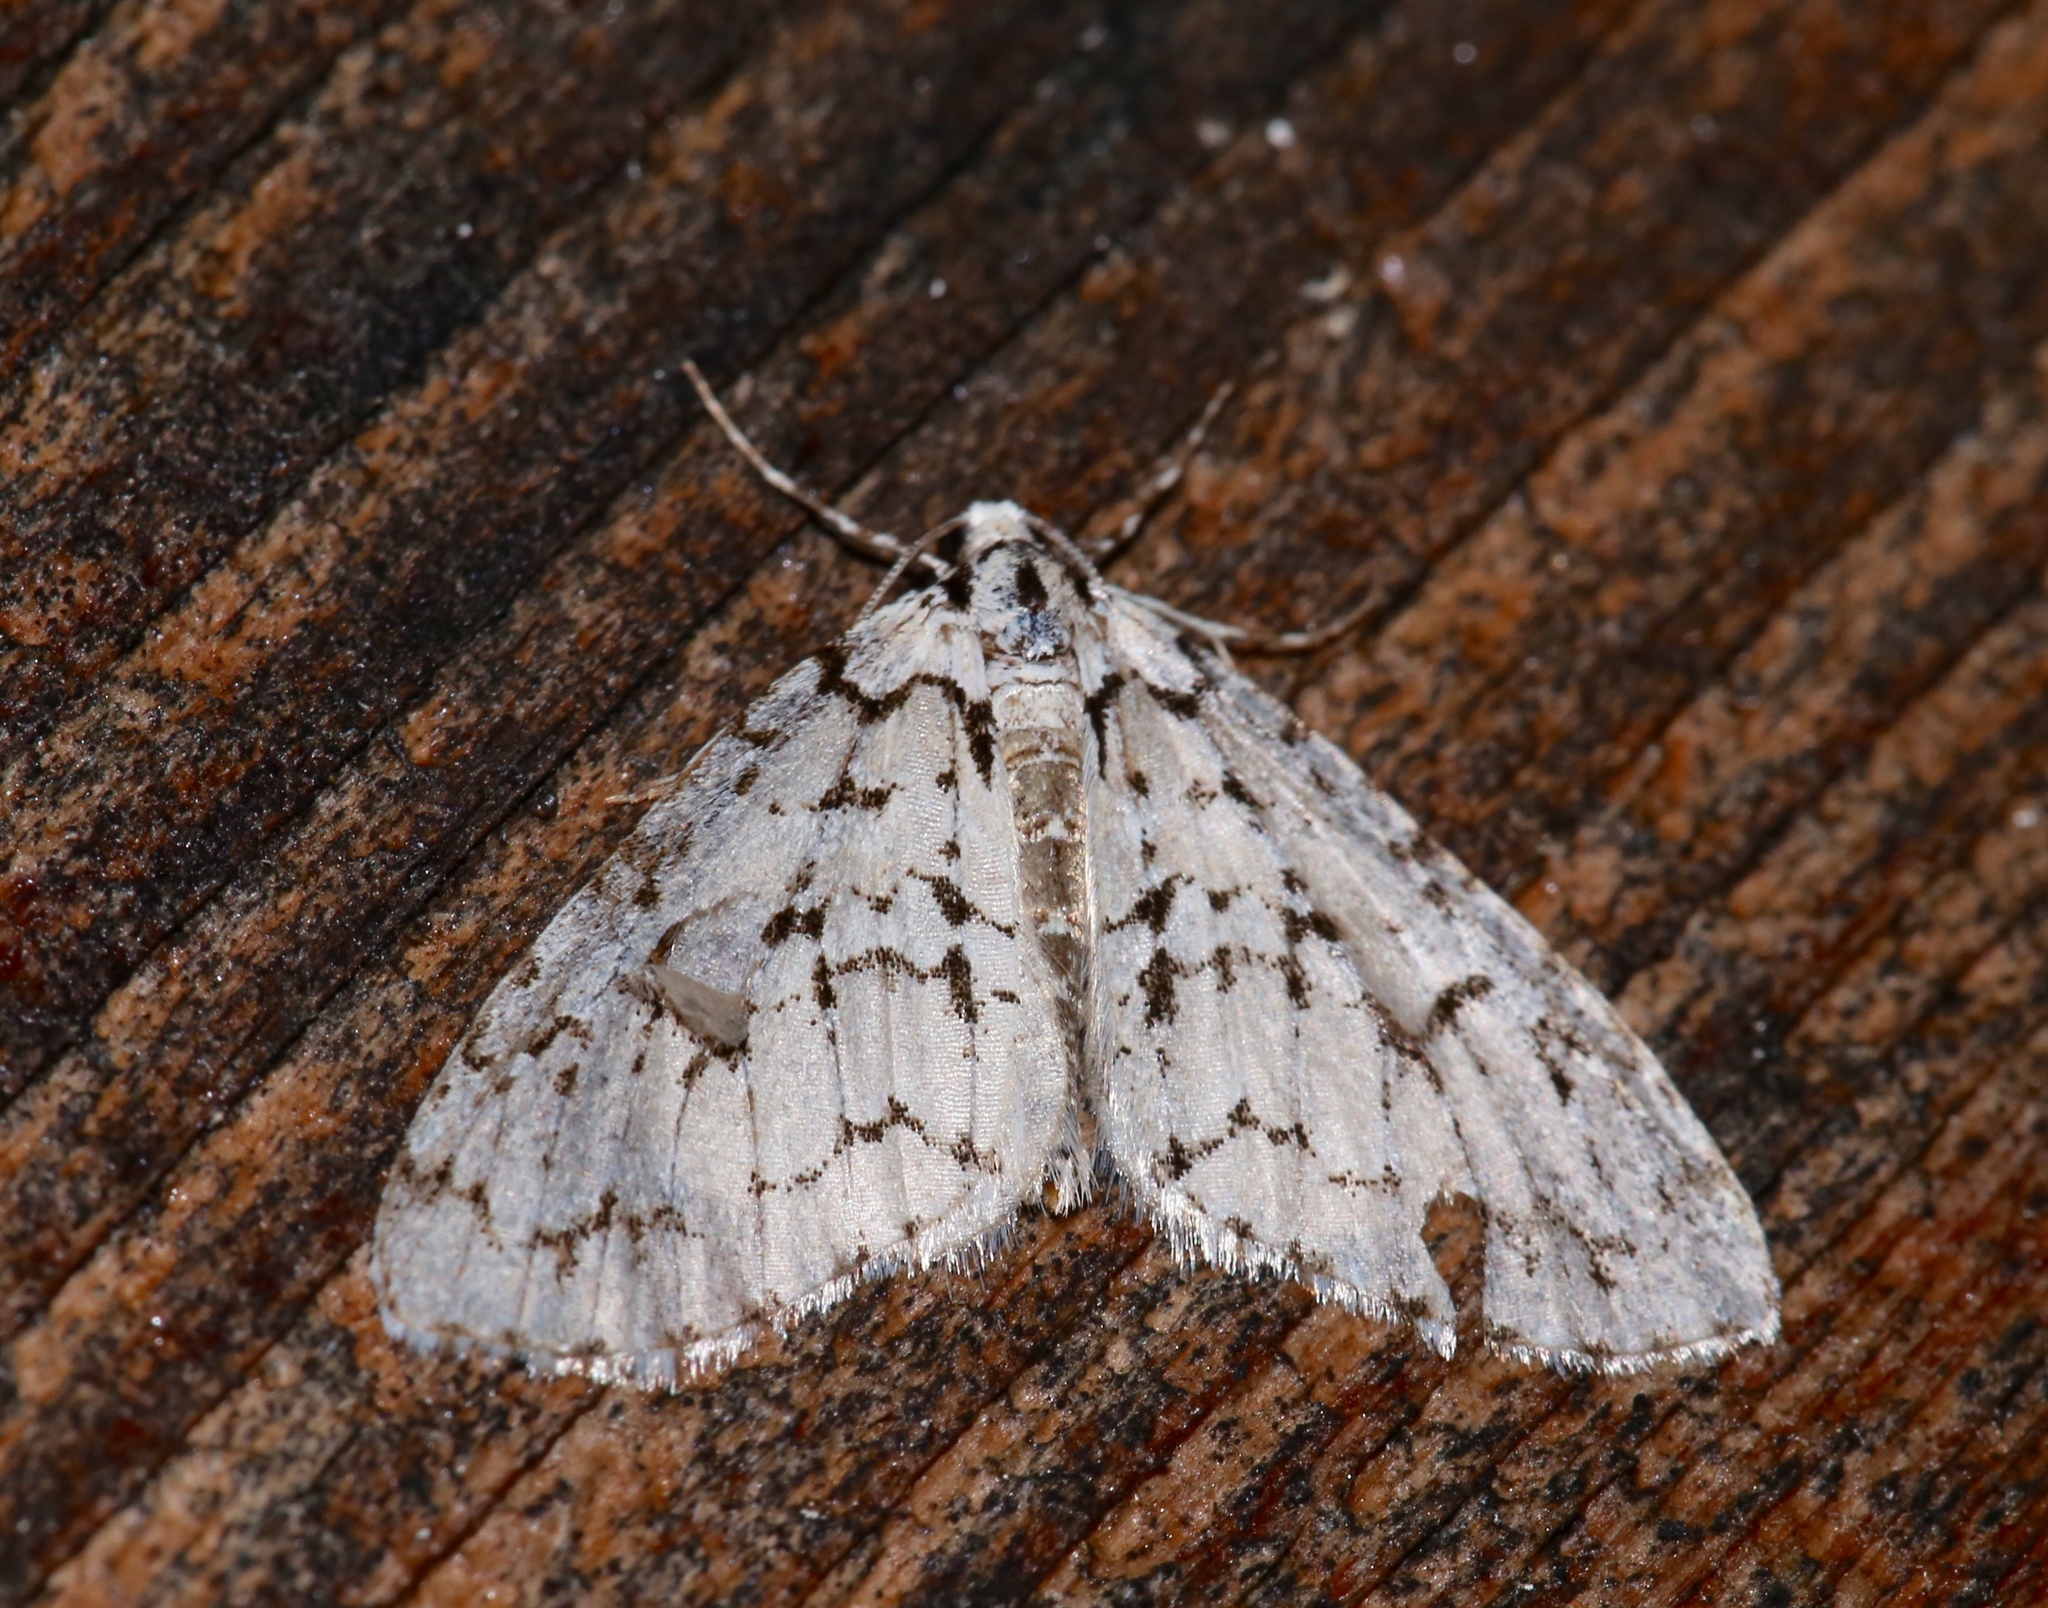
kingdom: Animalia
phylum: Arthropoda
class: Insecta
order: Lepidoptera
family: Geometridae
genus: Cladara
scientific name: Cladara atroliturata
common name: Scribbler
